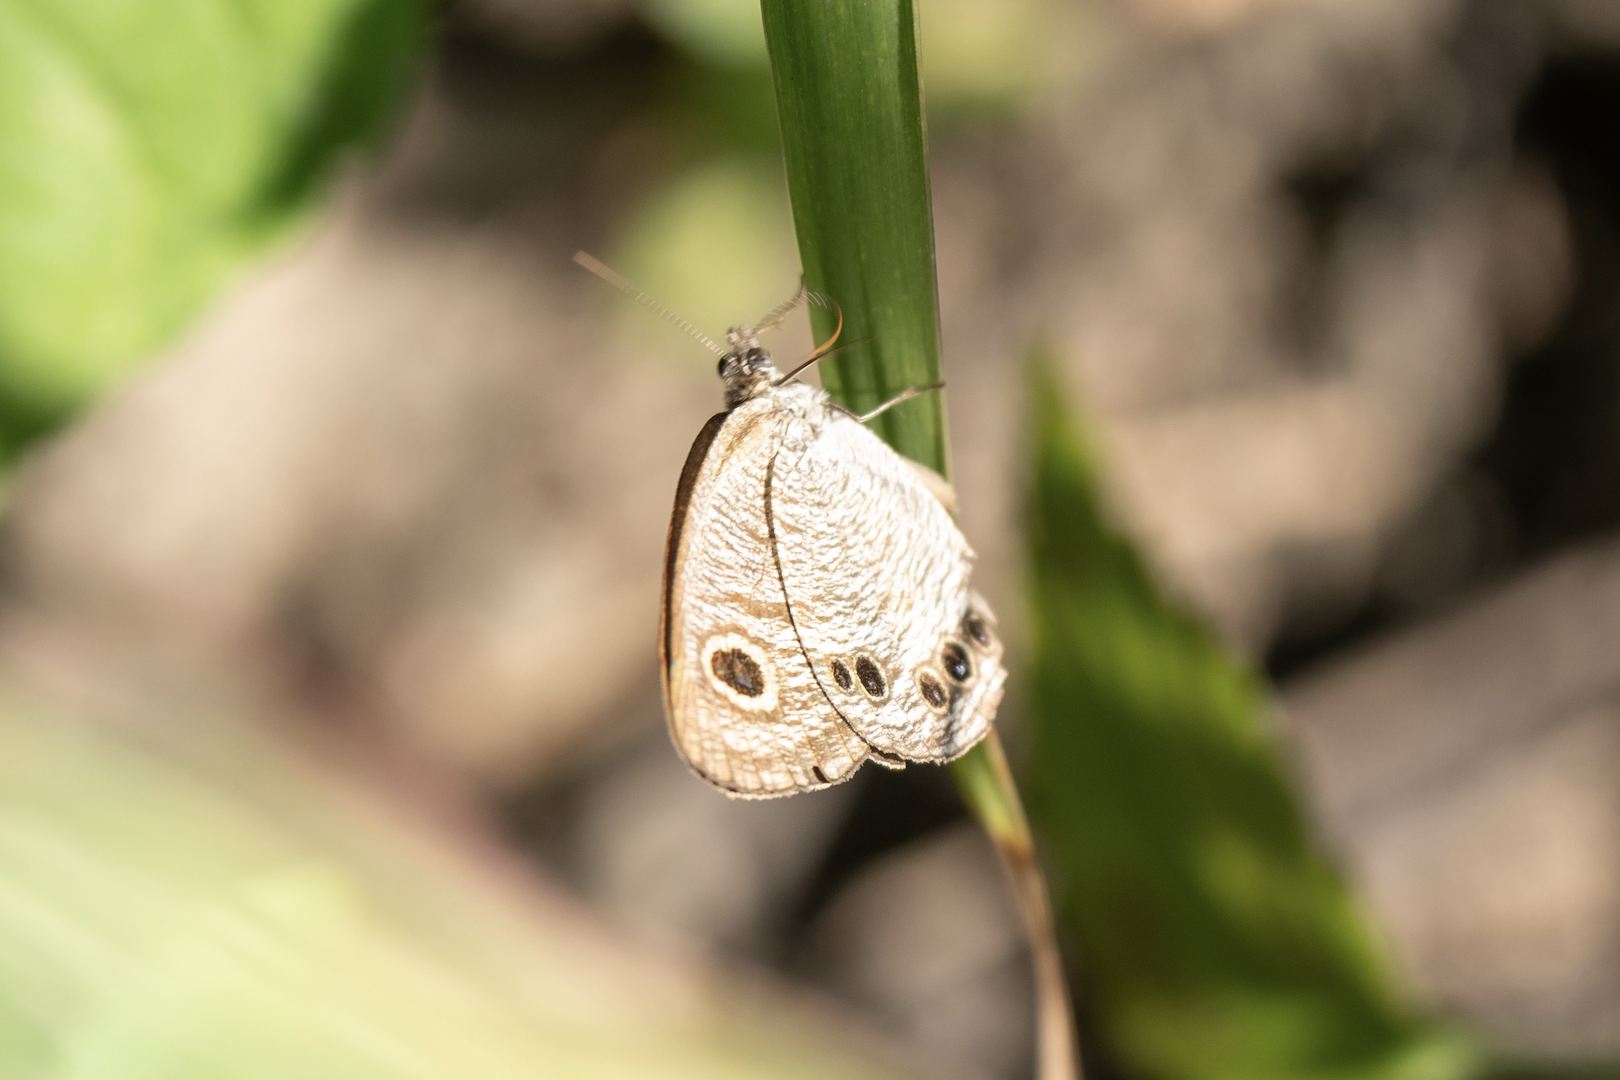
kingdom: Animalia
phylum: Arthropoda
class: Insecta
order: Lepidoptera
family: Nymphalidae
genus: Ypthima
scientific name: Ypthima lisandra
